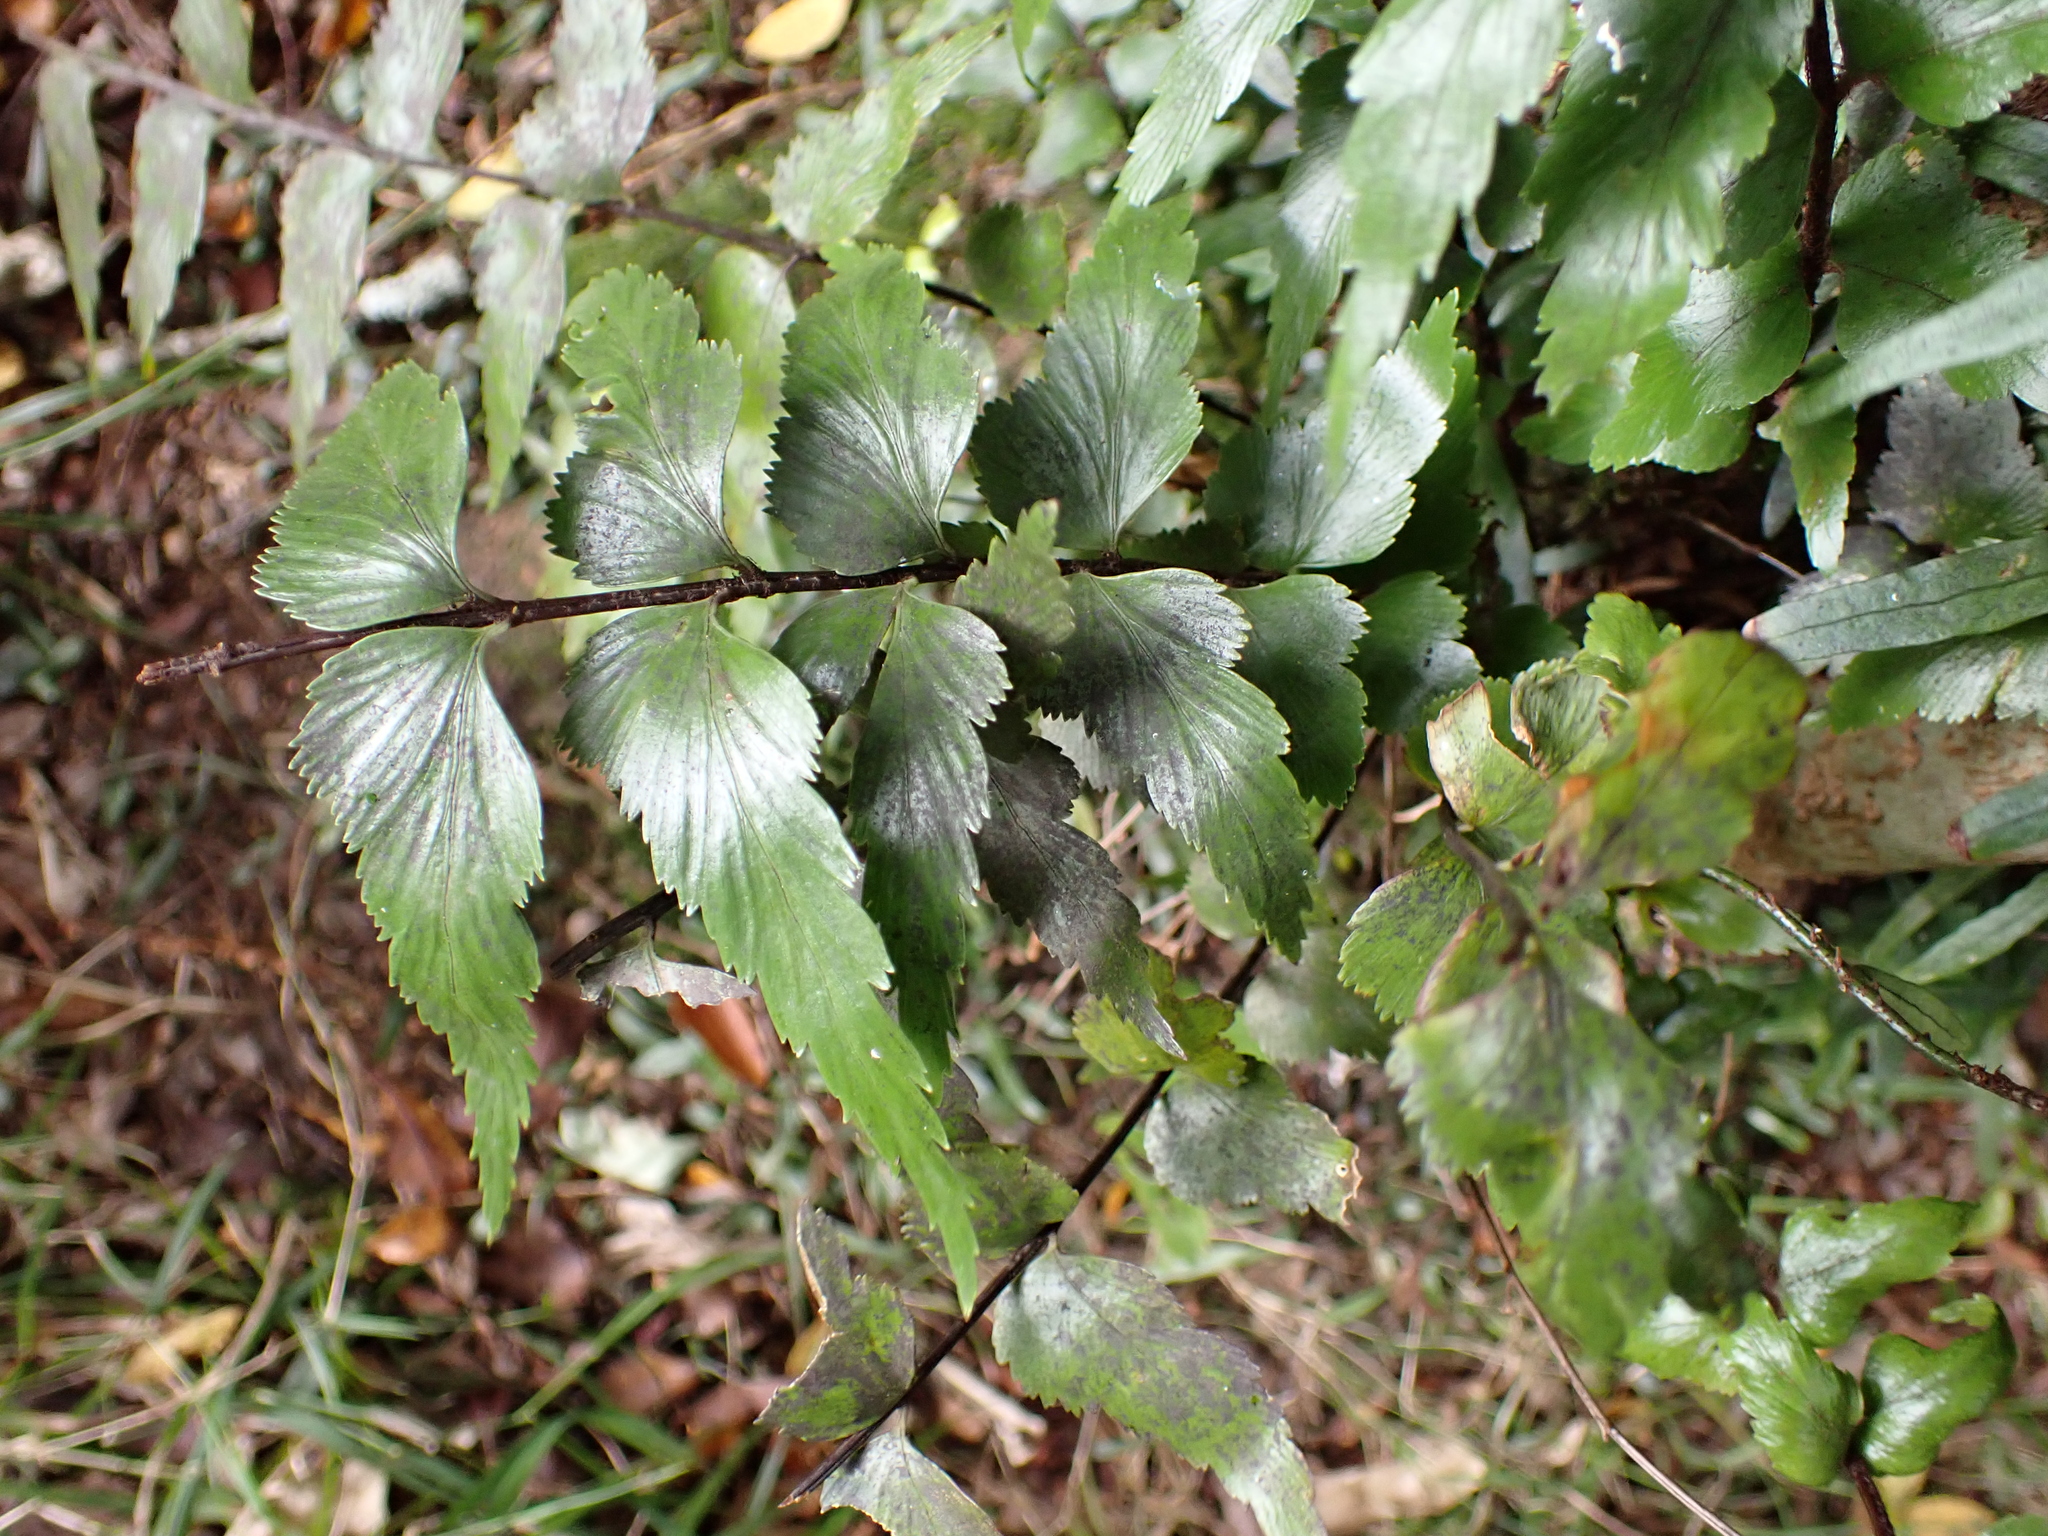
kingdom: Plantae
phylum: Tracheophyta
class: Polypodiopsida
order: Polypodiales
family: Aspleniaceae
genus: Asplenium
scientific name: Asplenium polyodon
